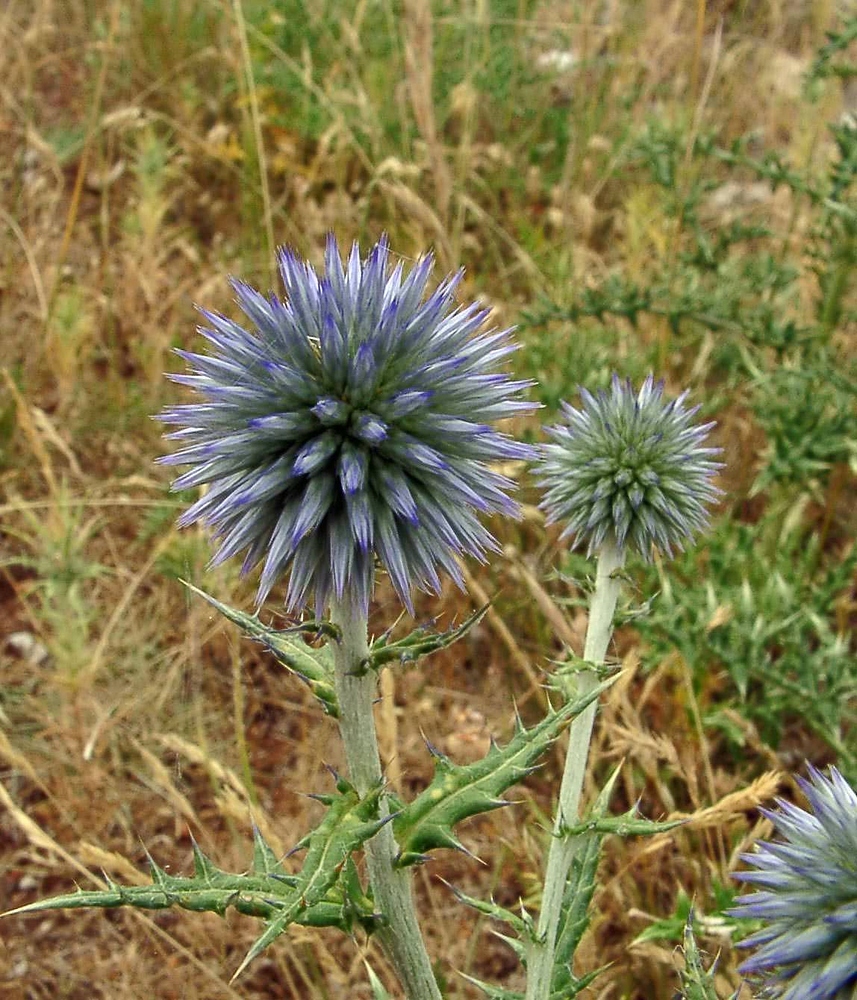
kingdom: Plantae
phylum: Tracheophyta
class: Magnoliopsida
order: Asterales
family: Asteraceae
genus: Echinops
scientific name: Echinops ritro
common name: Globe thistle
